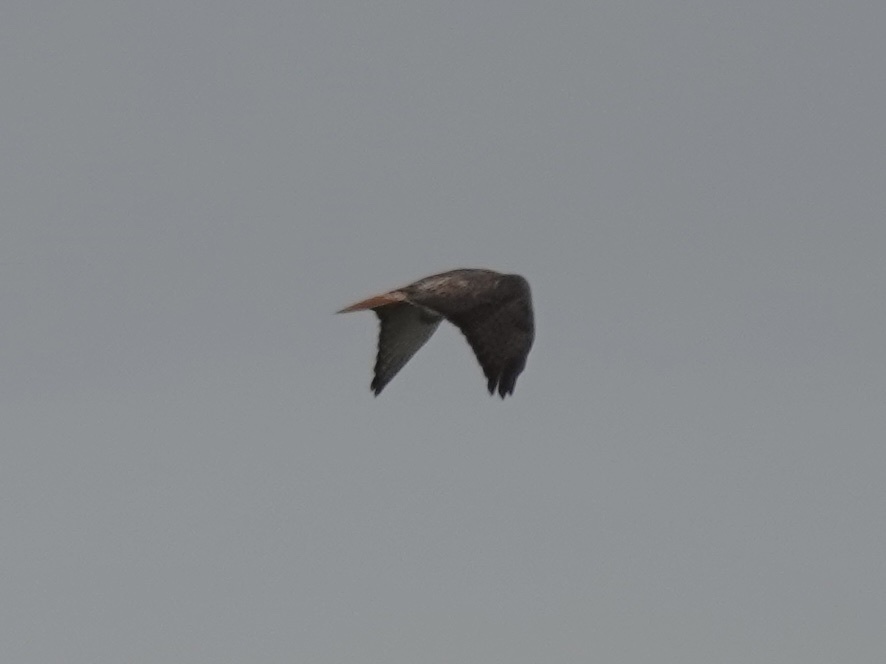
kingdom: Animalia
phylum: Chordata
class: Aves
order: Accipitriformes
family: Accipitridae
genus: Buteo
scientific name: Buteo jamaicensis
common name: Red-tailed hawk
